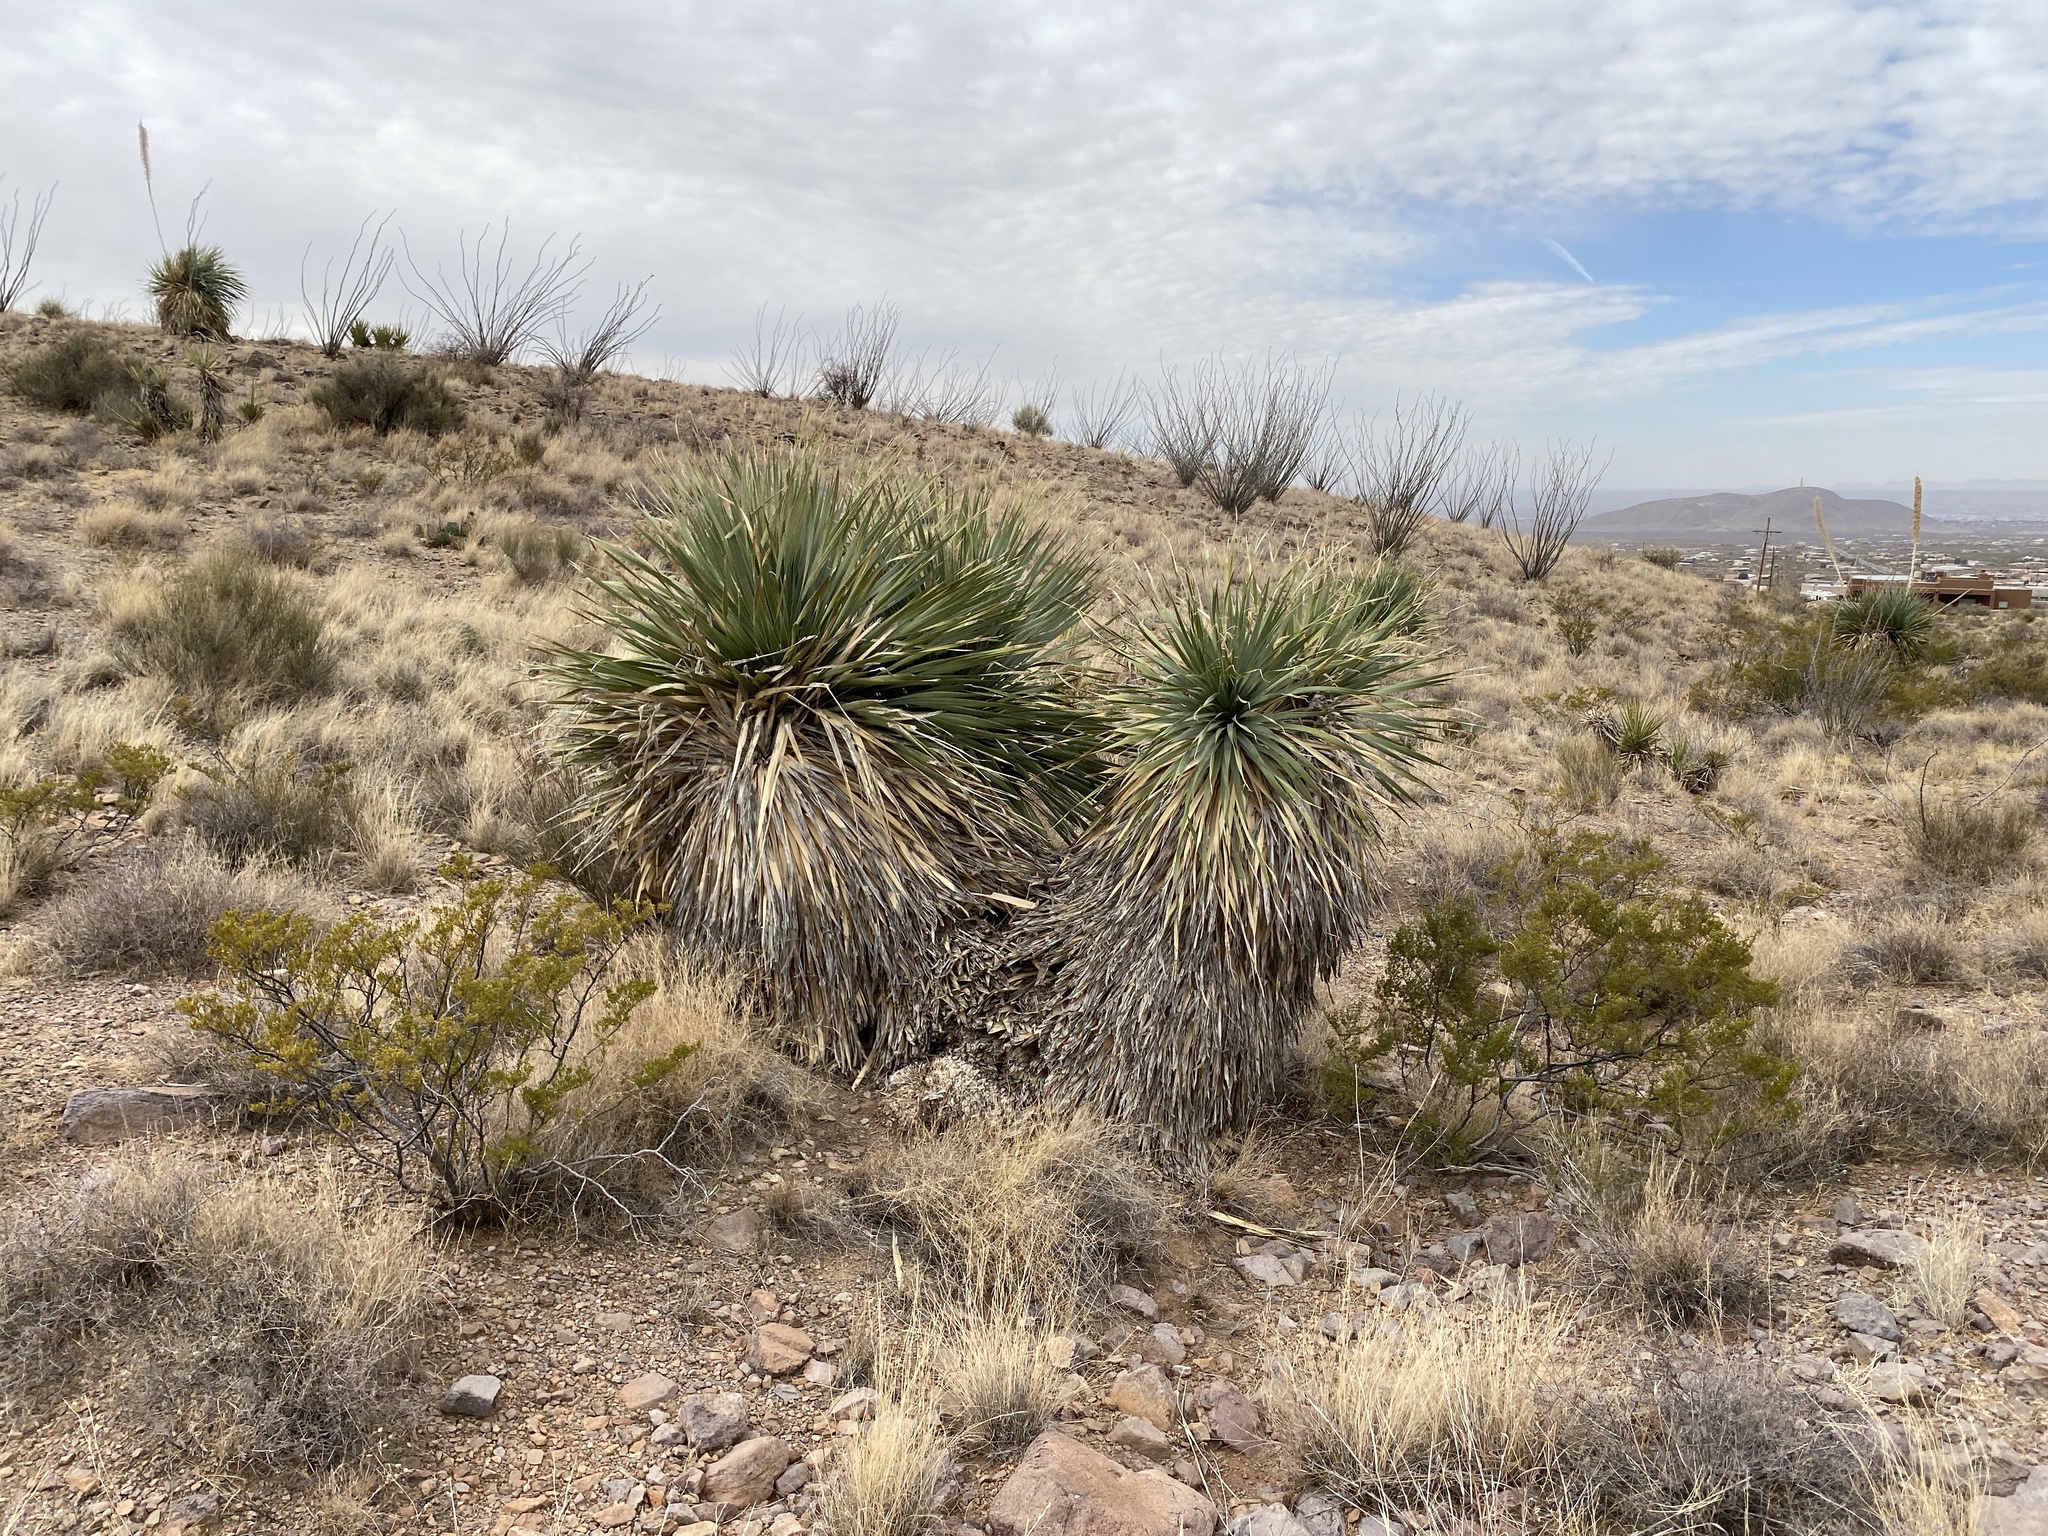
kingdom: Plantae
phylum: Tracheophyta
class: Liliopsida
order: Asparagales
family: Asparagaceae
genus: Dasylirion
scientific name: Dasylirion wheeleri
